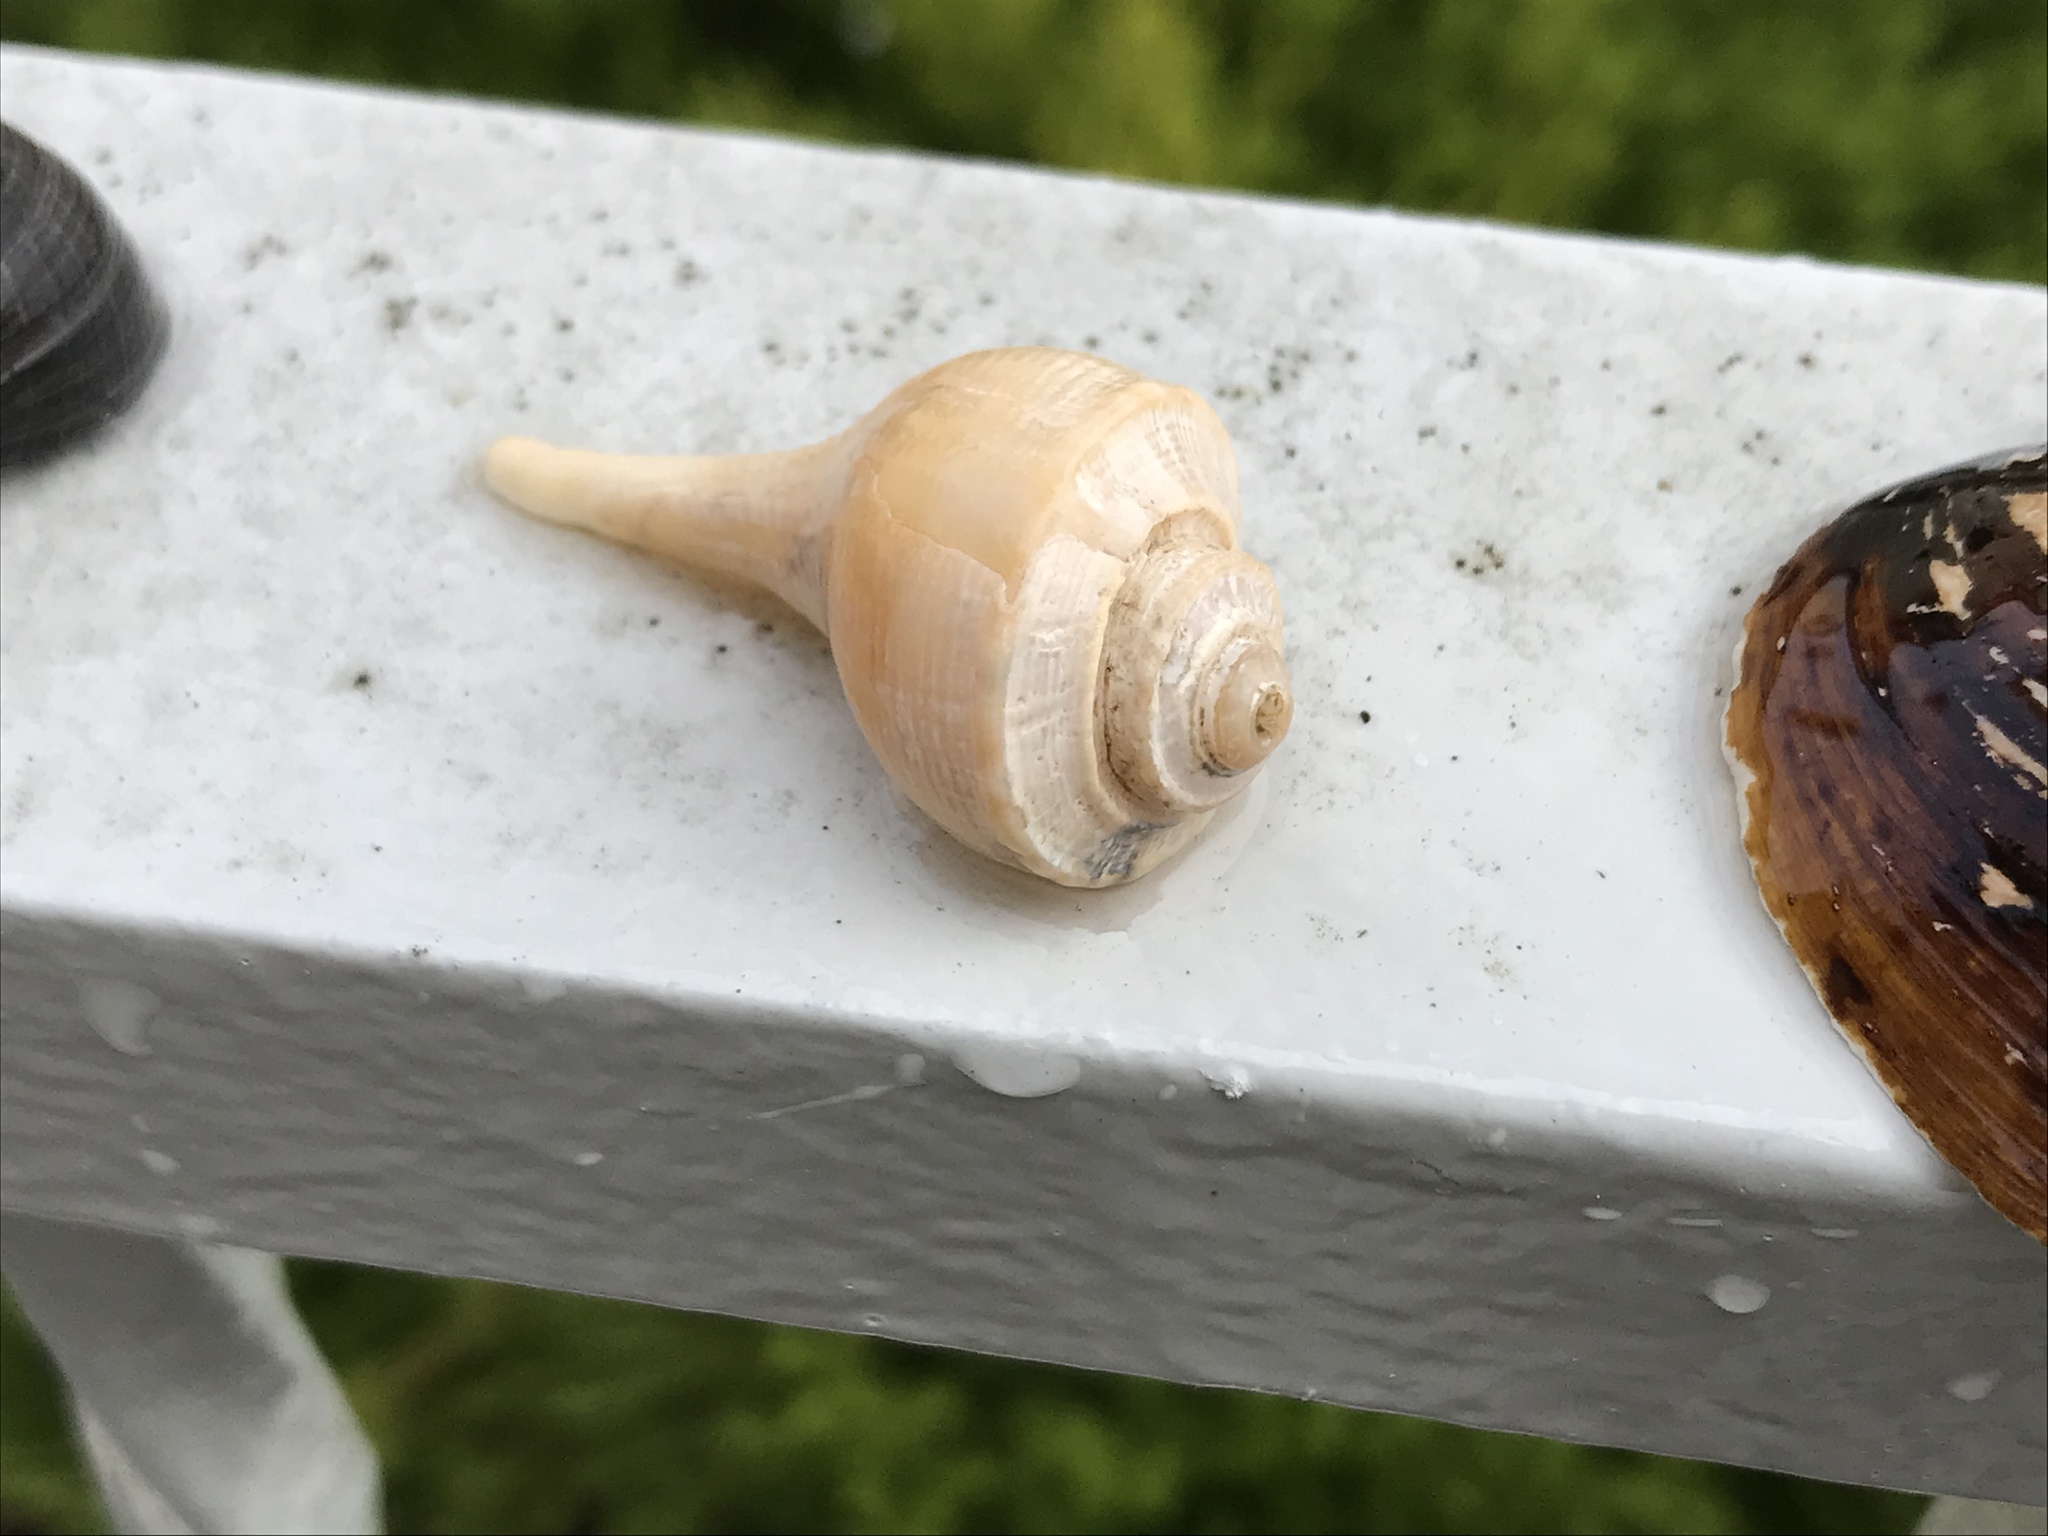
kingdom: Animalia
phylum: Mollusca
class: Gastropoda
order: Neogastropoda
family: Busyconidae
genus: Busycotypus
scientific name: Busycotypus canaliculatus
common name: Channeled whelk
